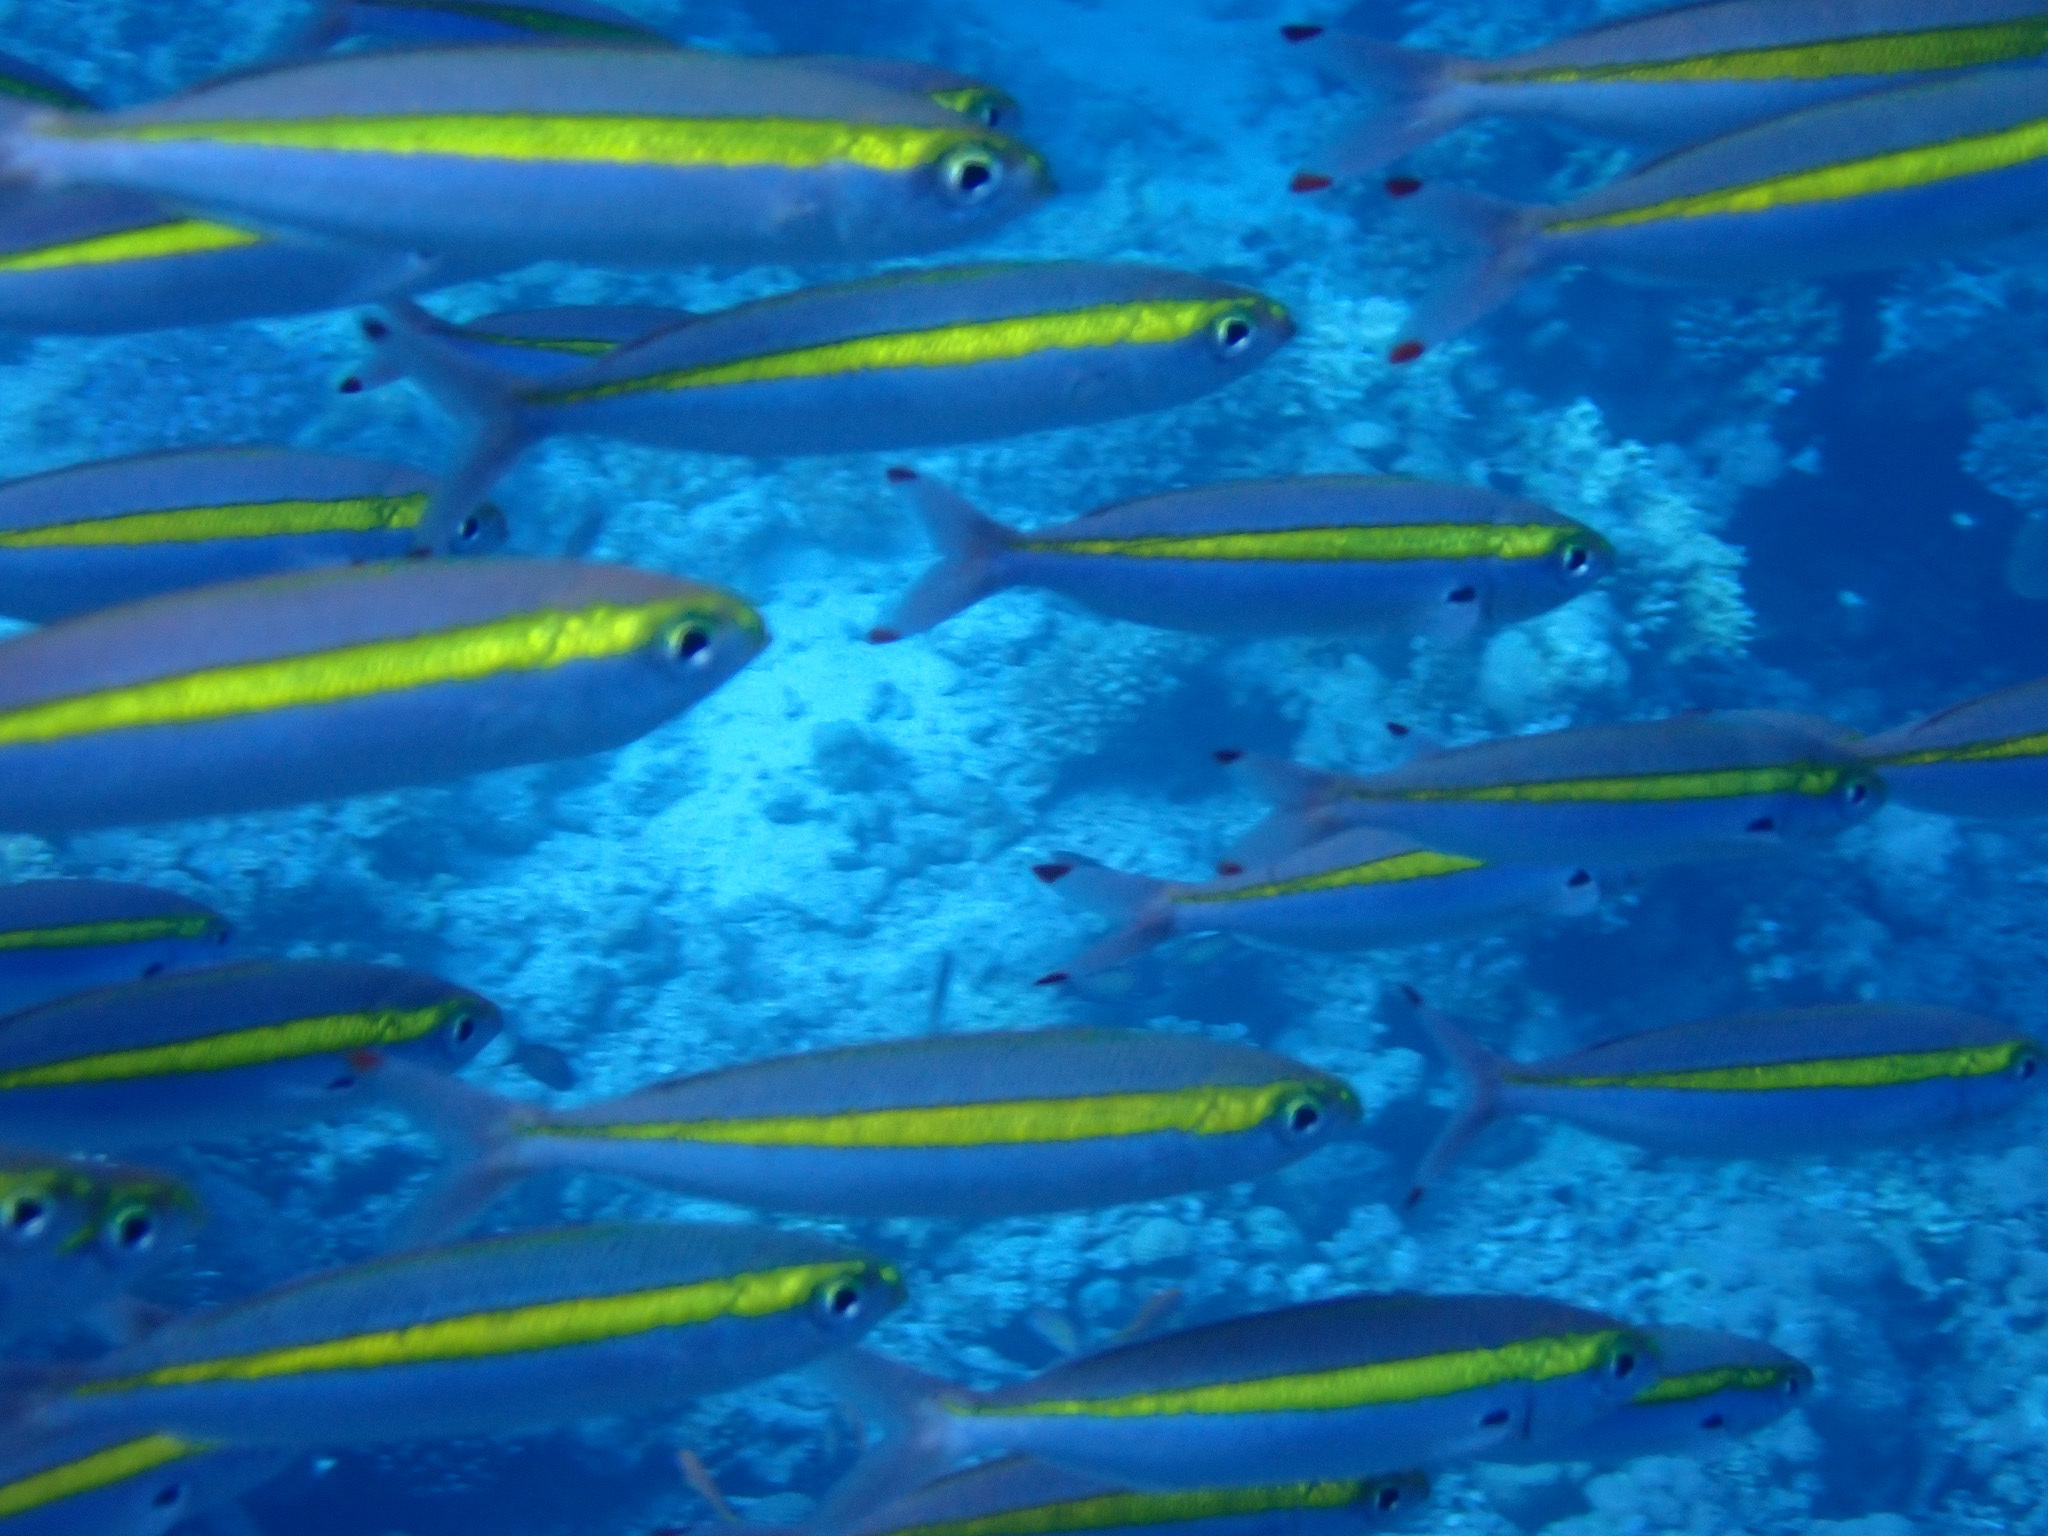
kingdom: Animalia
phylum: Chordata
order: Perciformes
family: Caesionidae
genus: Pterocaesio
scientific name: Pterocaesio chrysozona
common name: Goldband fusilier
